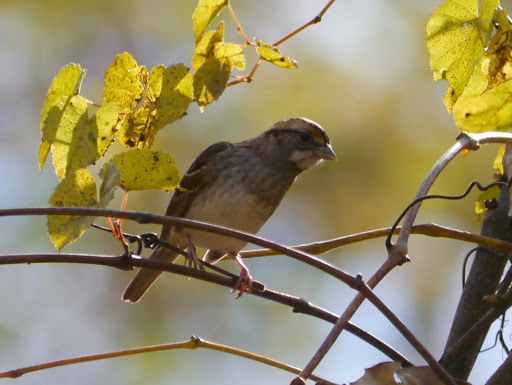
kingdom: Animalia
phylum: Chordata
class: Aves
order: Passeriformes
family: Passerellidae
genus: Zonotrichia
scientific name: Zonotrichia albicollis
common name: White-throated sparrow
